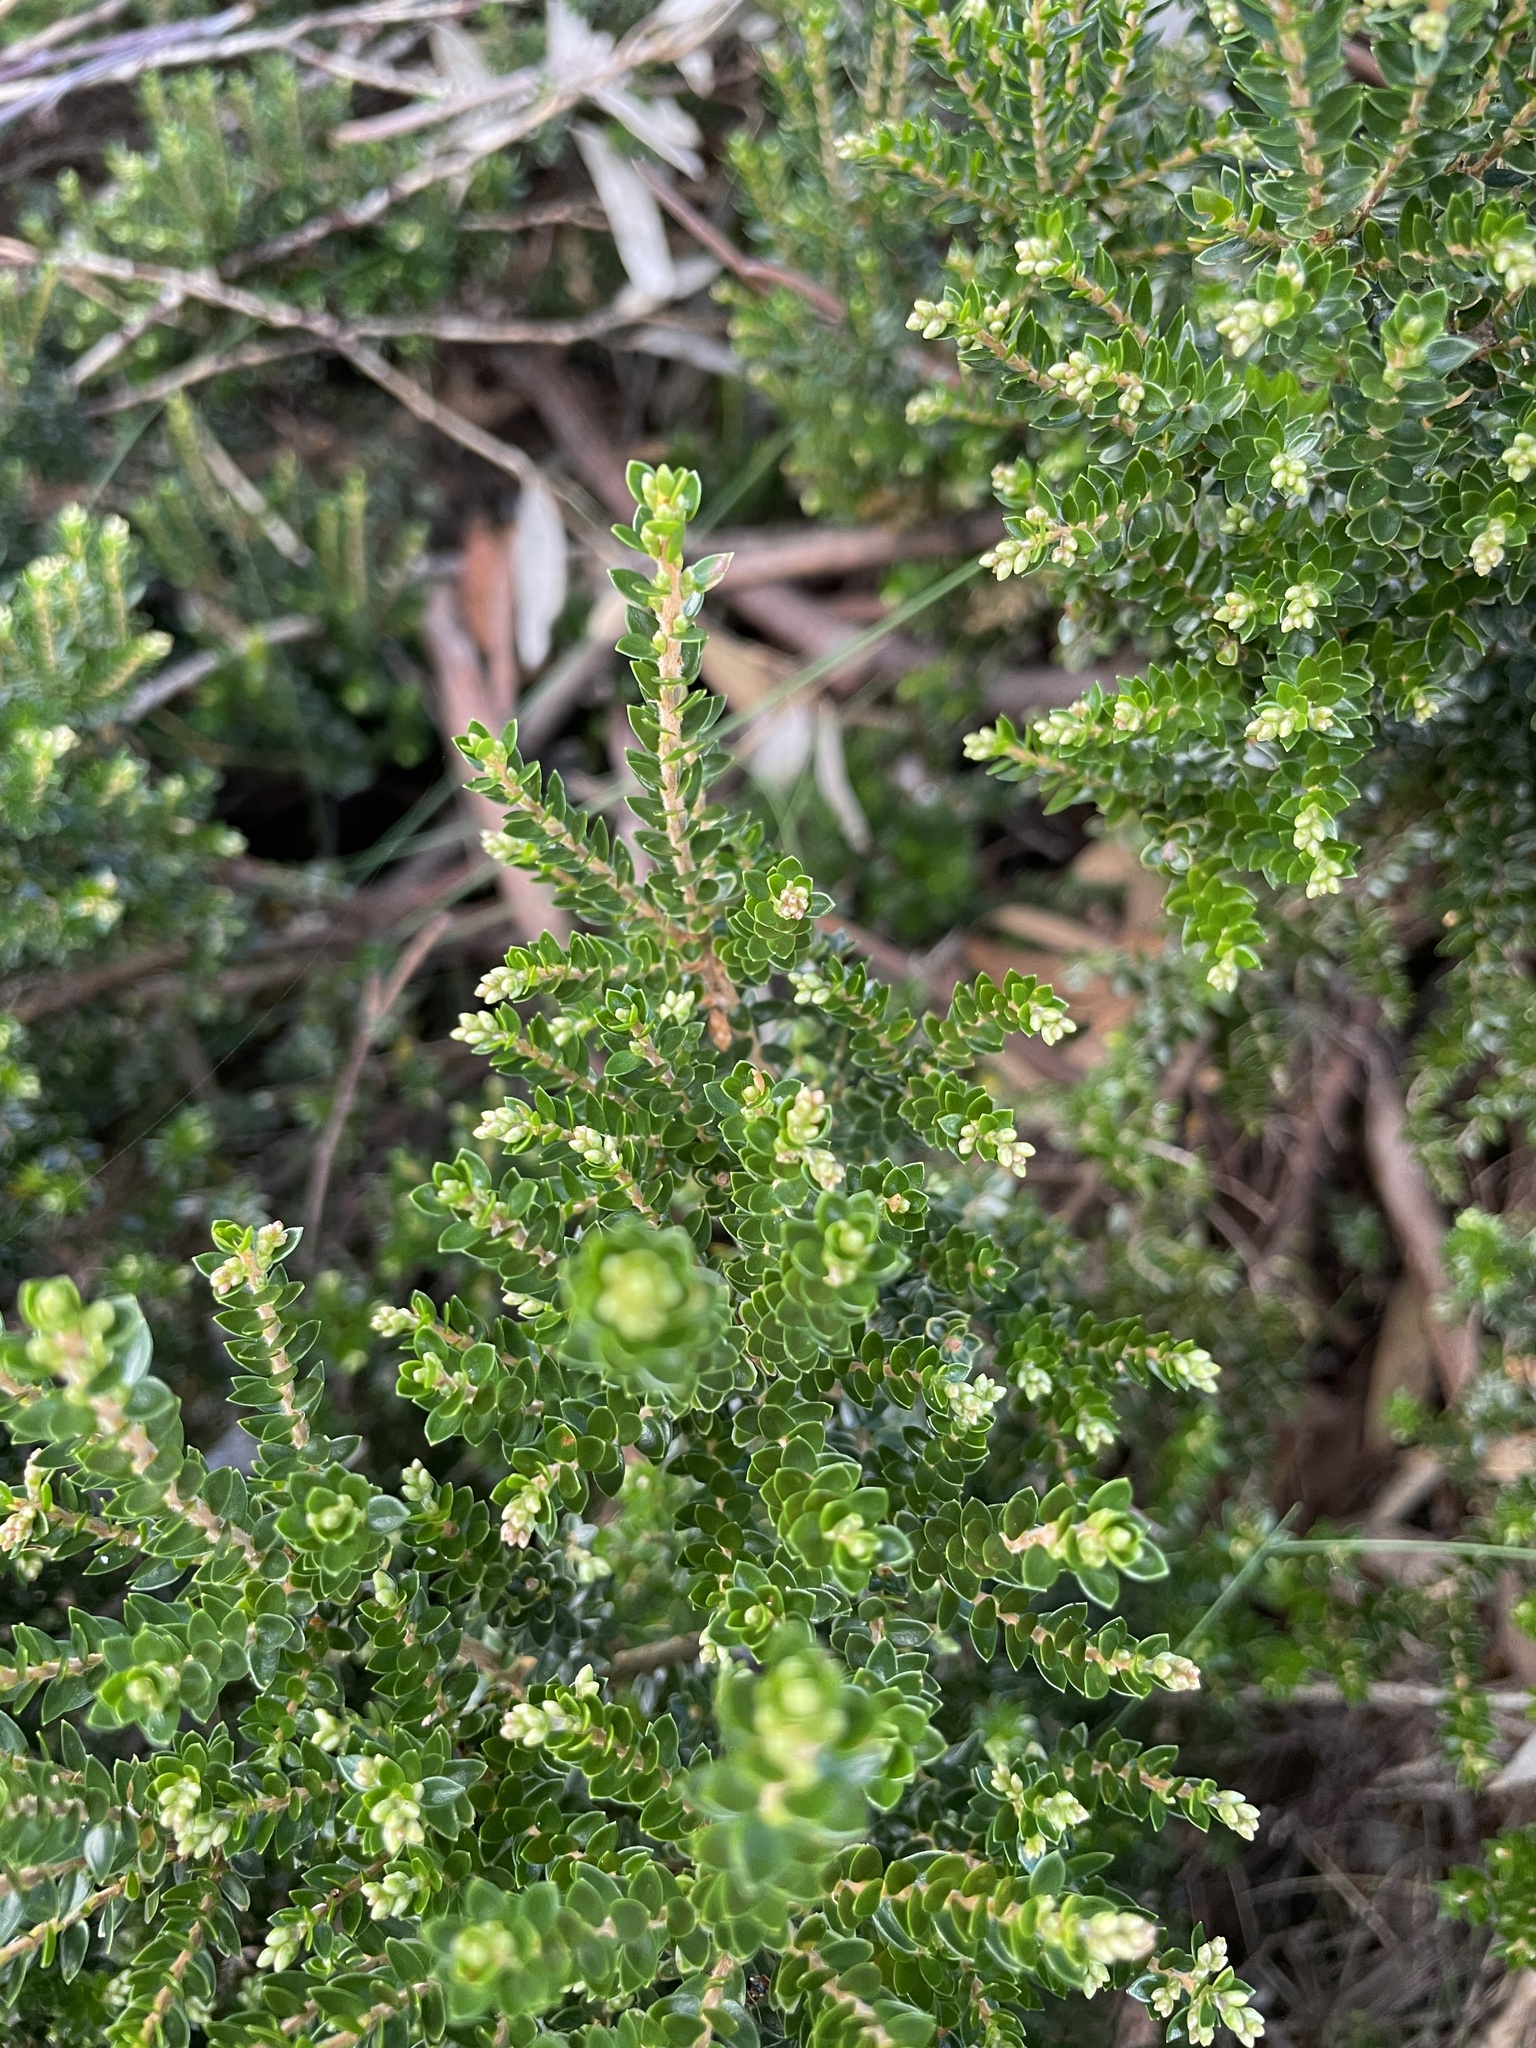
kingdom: Plantae
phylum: Tracheophyta
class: Magnoliopsida
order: Ericales
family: Ericaceae
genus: Acrothamnus
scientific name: Acrothamnus maccraei
